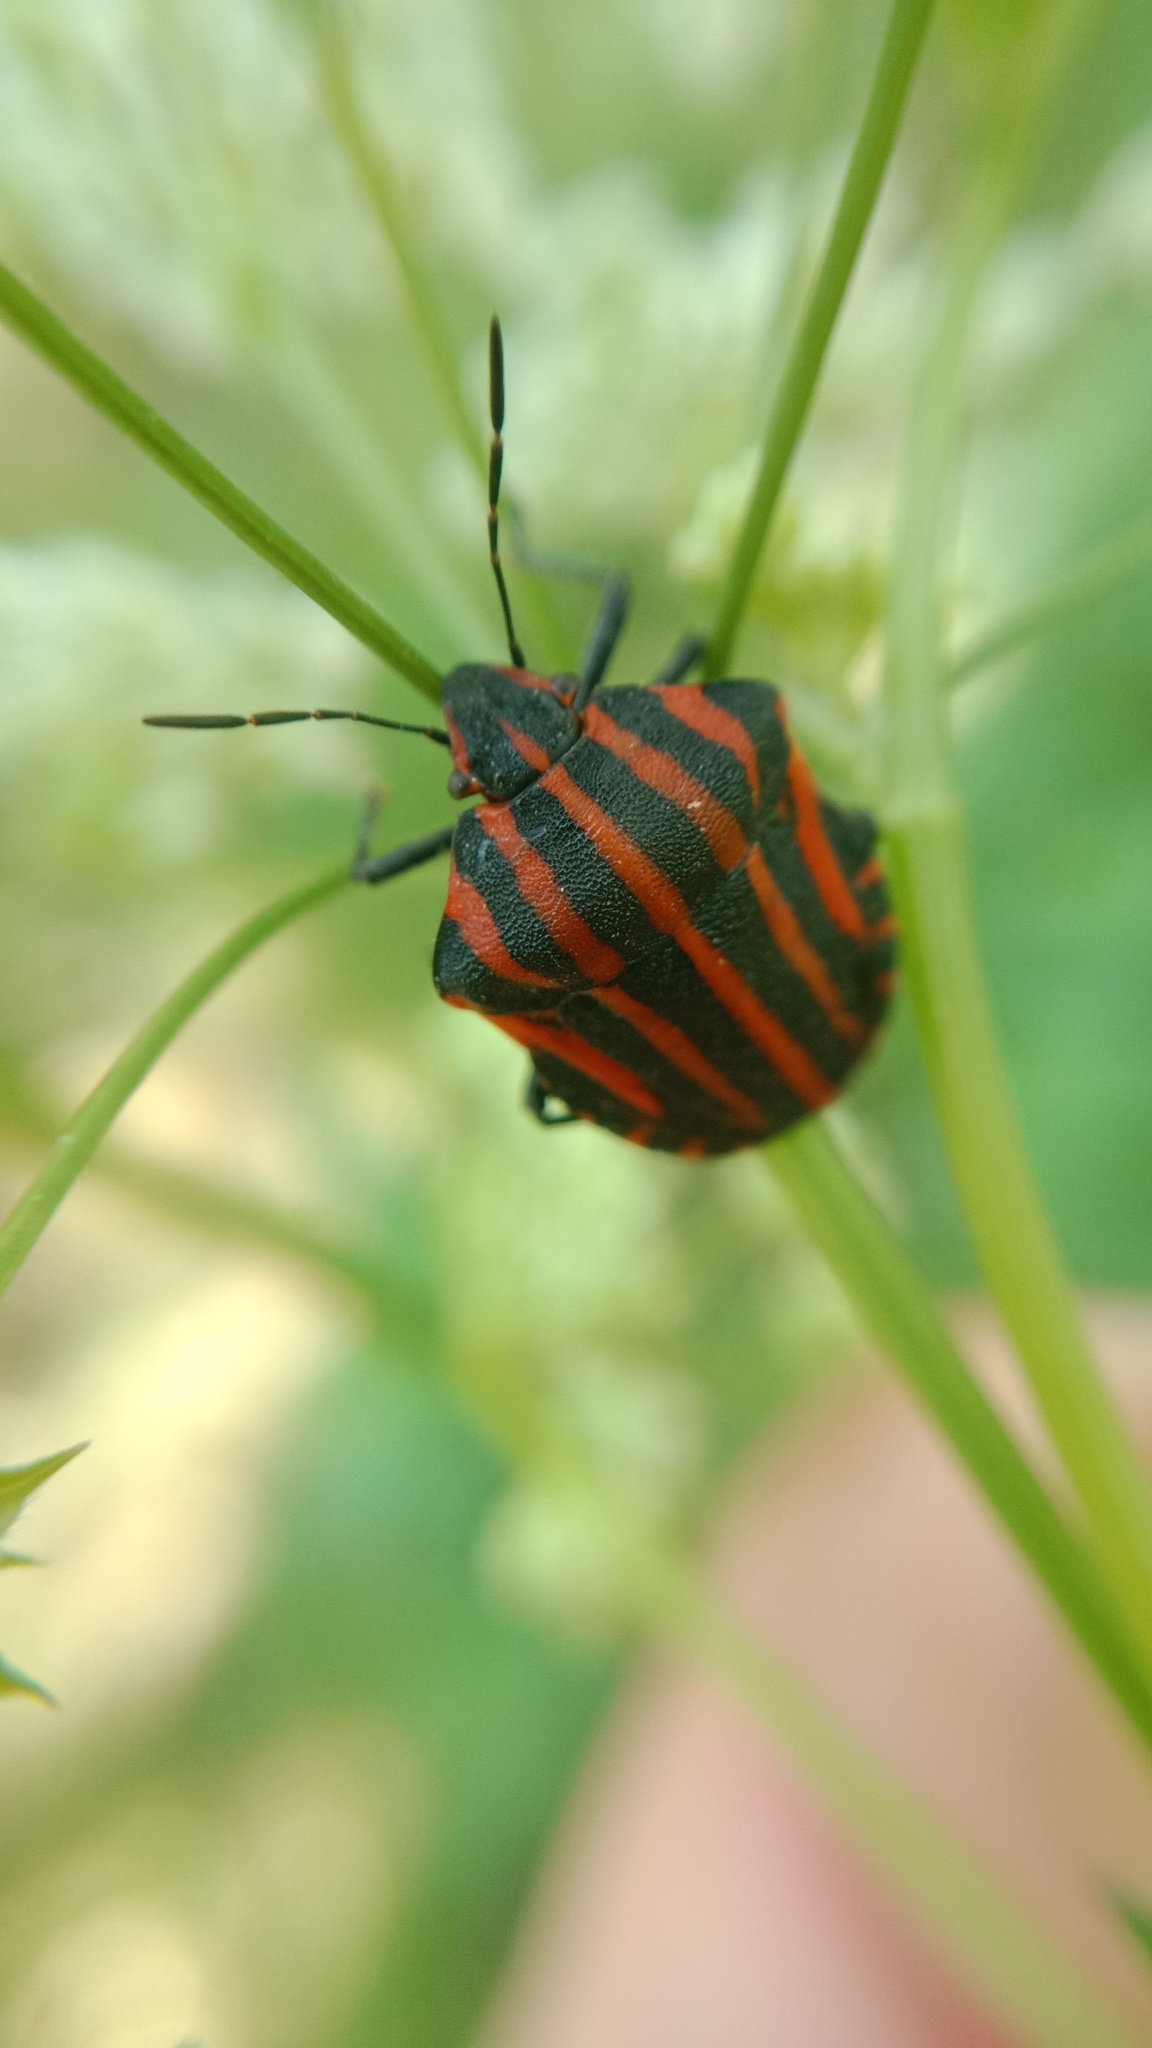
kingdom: Animalia
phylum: Arthropoda
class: Insecta
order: Hemiptera
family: Pentatomidae
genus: Graphosoma
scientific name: Graphosoma italicum
